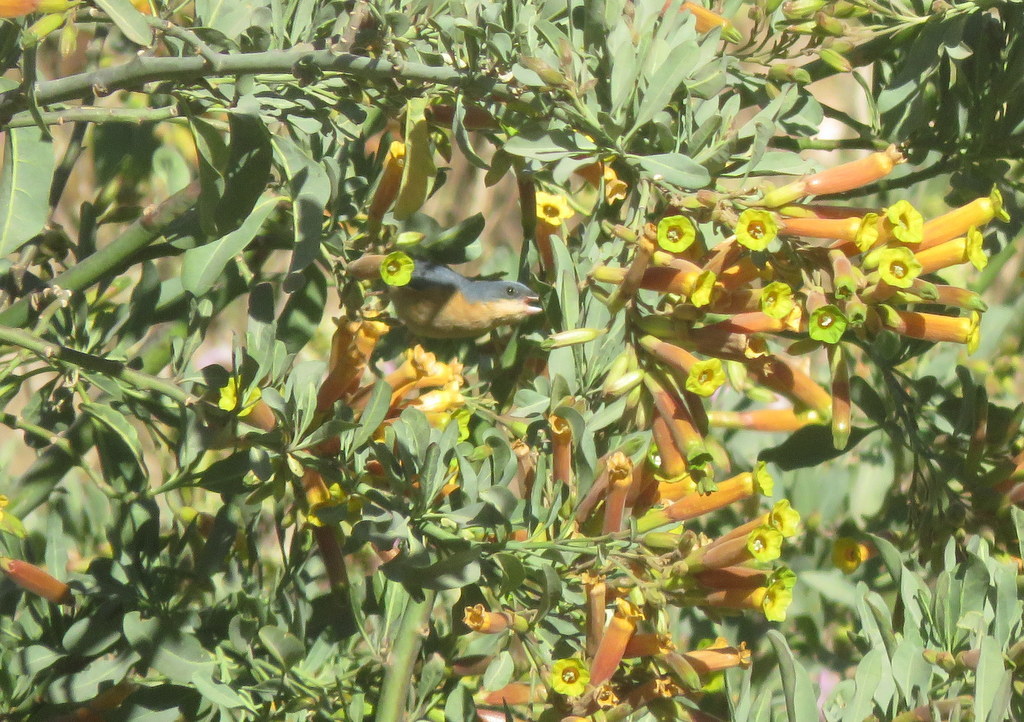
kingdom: Animalia
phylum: Chordata
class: Aves
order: Passeriformes
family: Thraupidae
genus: Diglossa
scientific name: Diglossa sittoides
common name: Rusty flowerpiercer
